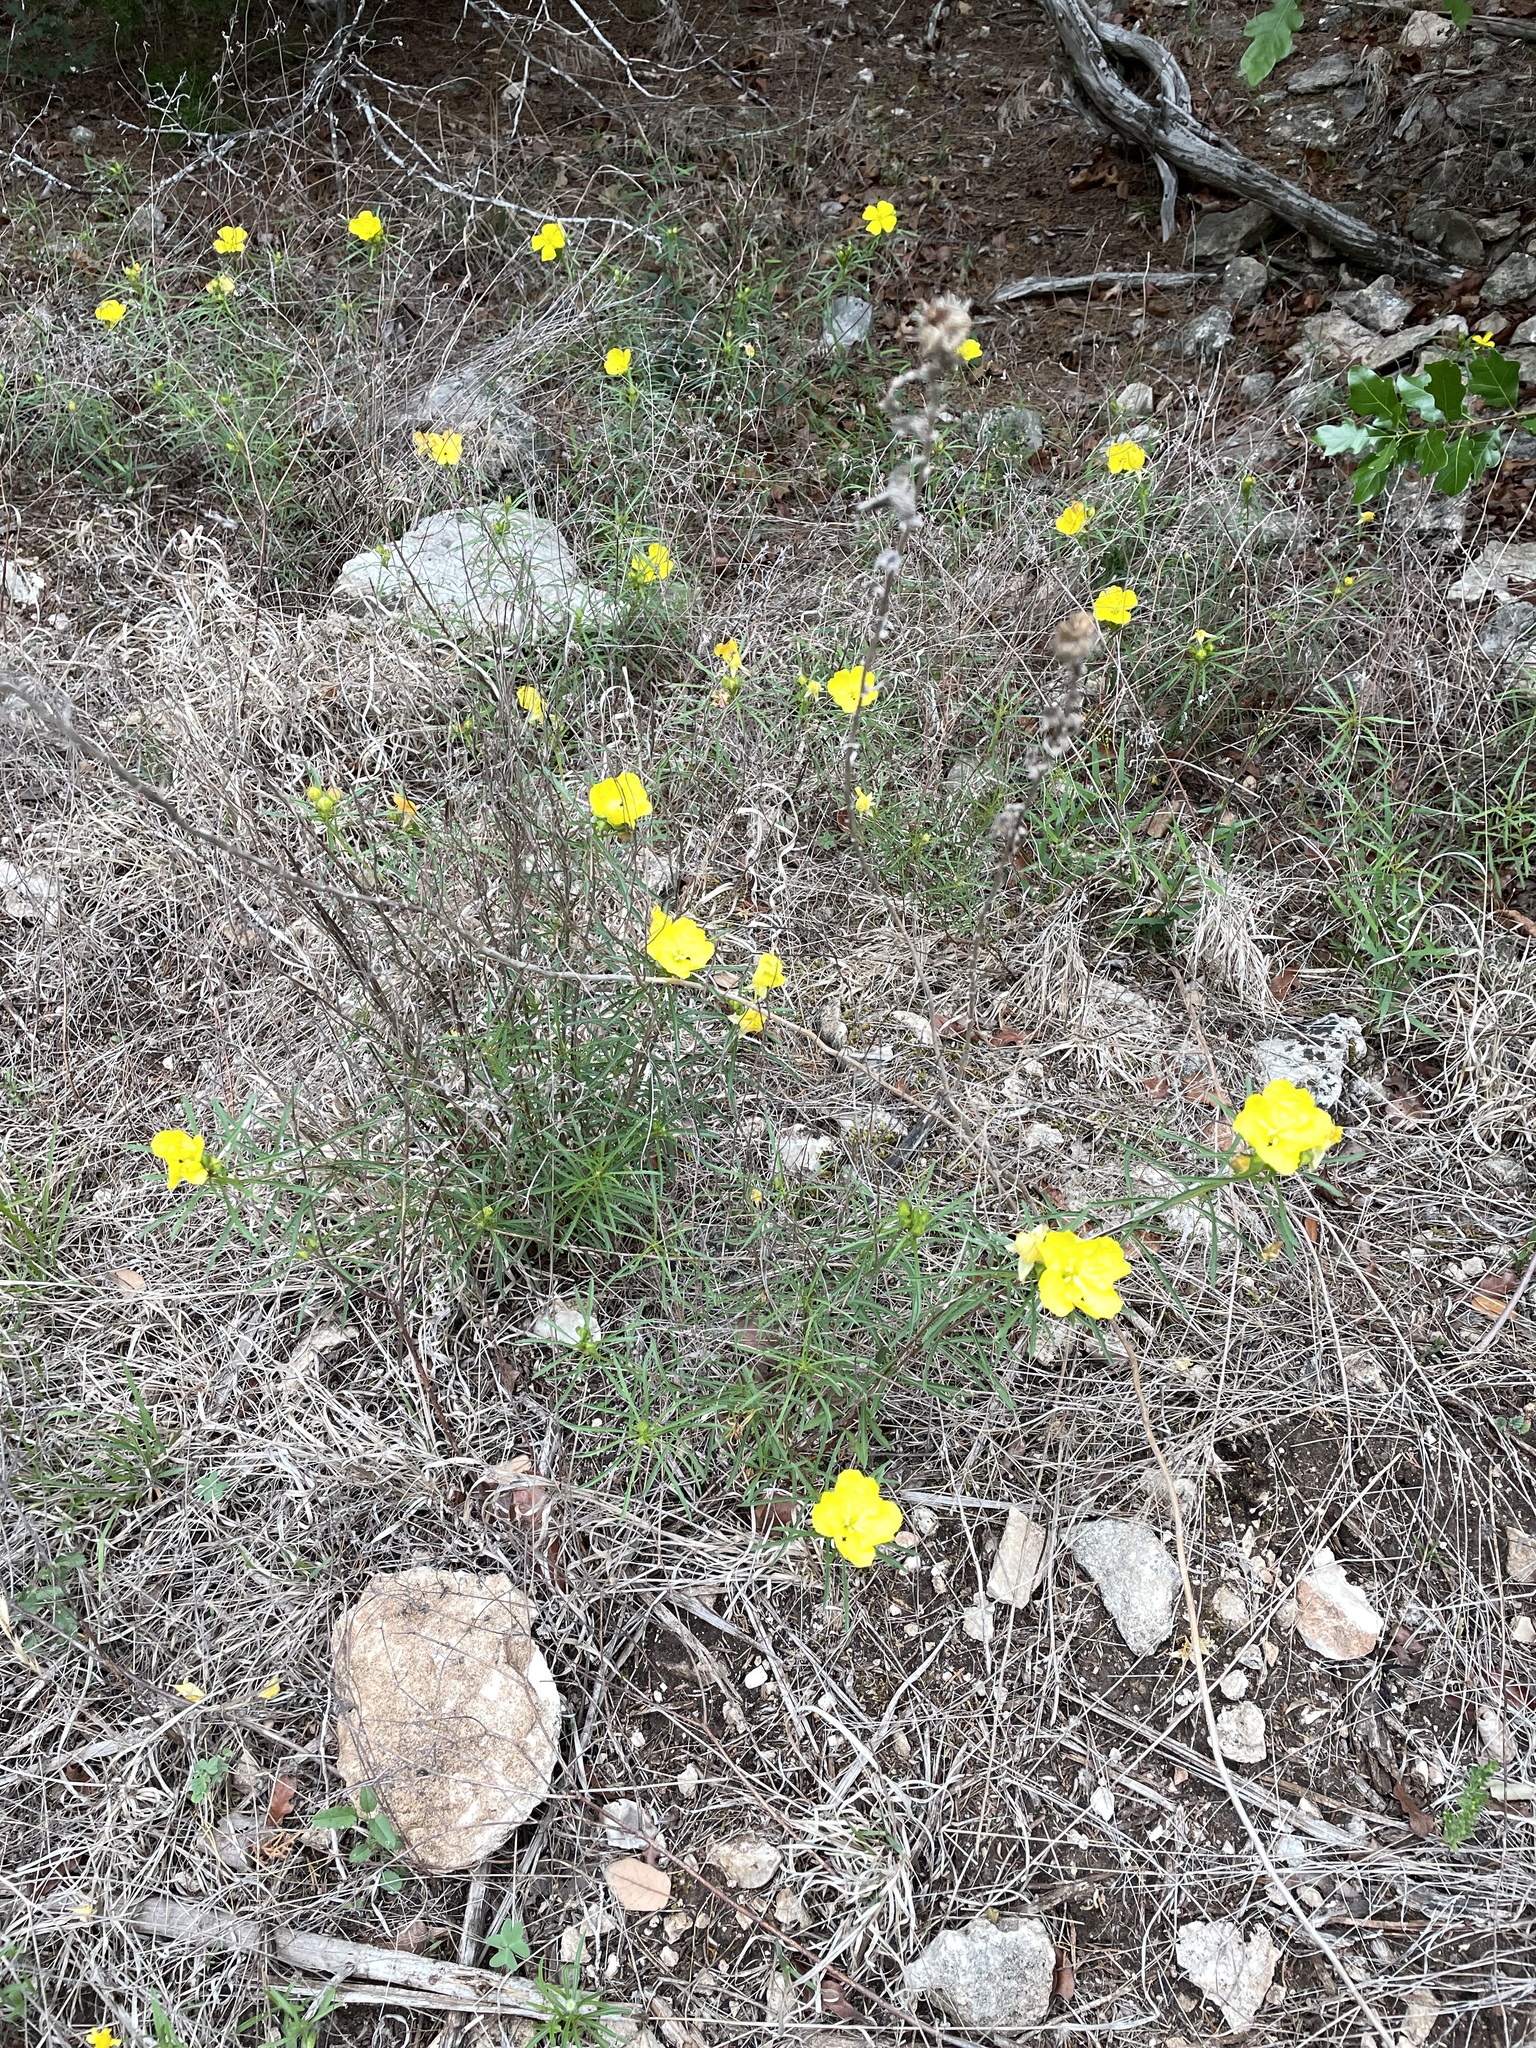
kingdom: Plantae
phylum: Tracheophyta
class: Magnoliopsida
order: Myrtales
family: Onagraceae
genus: Oenothera
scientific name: Oenothera
